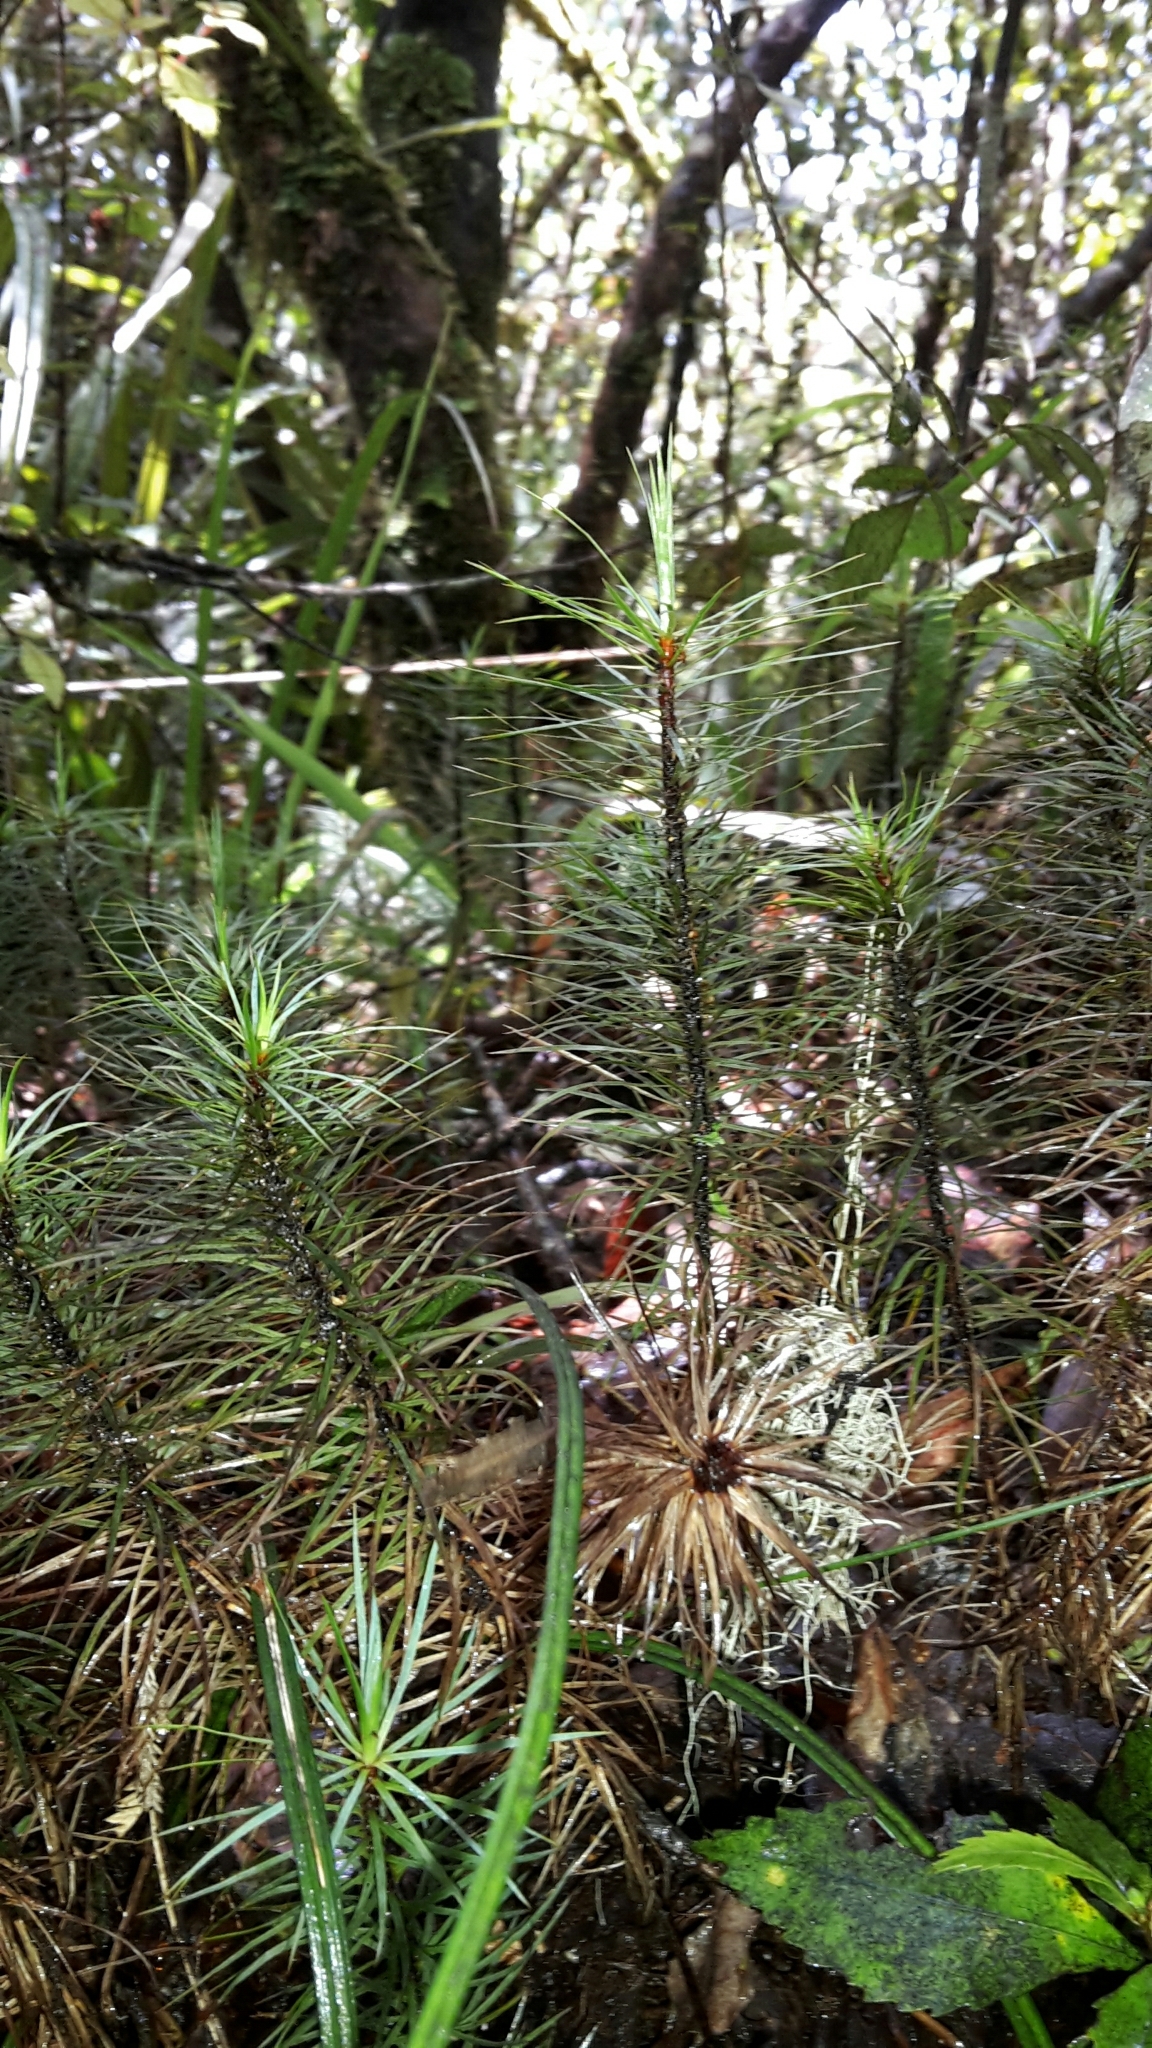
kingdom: Plantae
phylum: Bryophyta
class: Polytrichopsida
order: Polytrichales
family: Polytrichaceae
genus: Dawsonia
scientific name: Dawsonia superba
